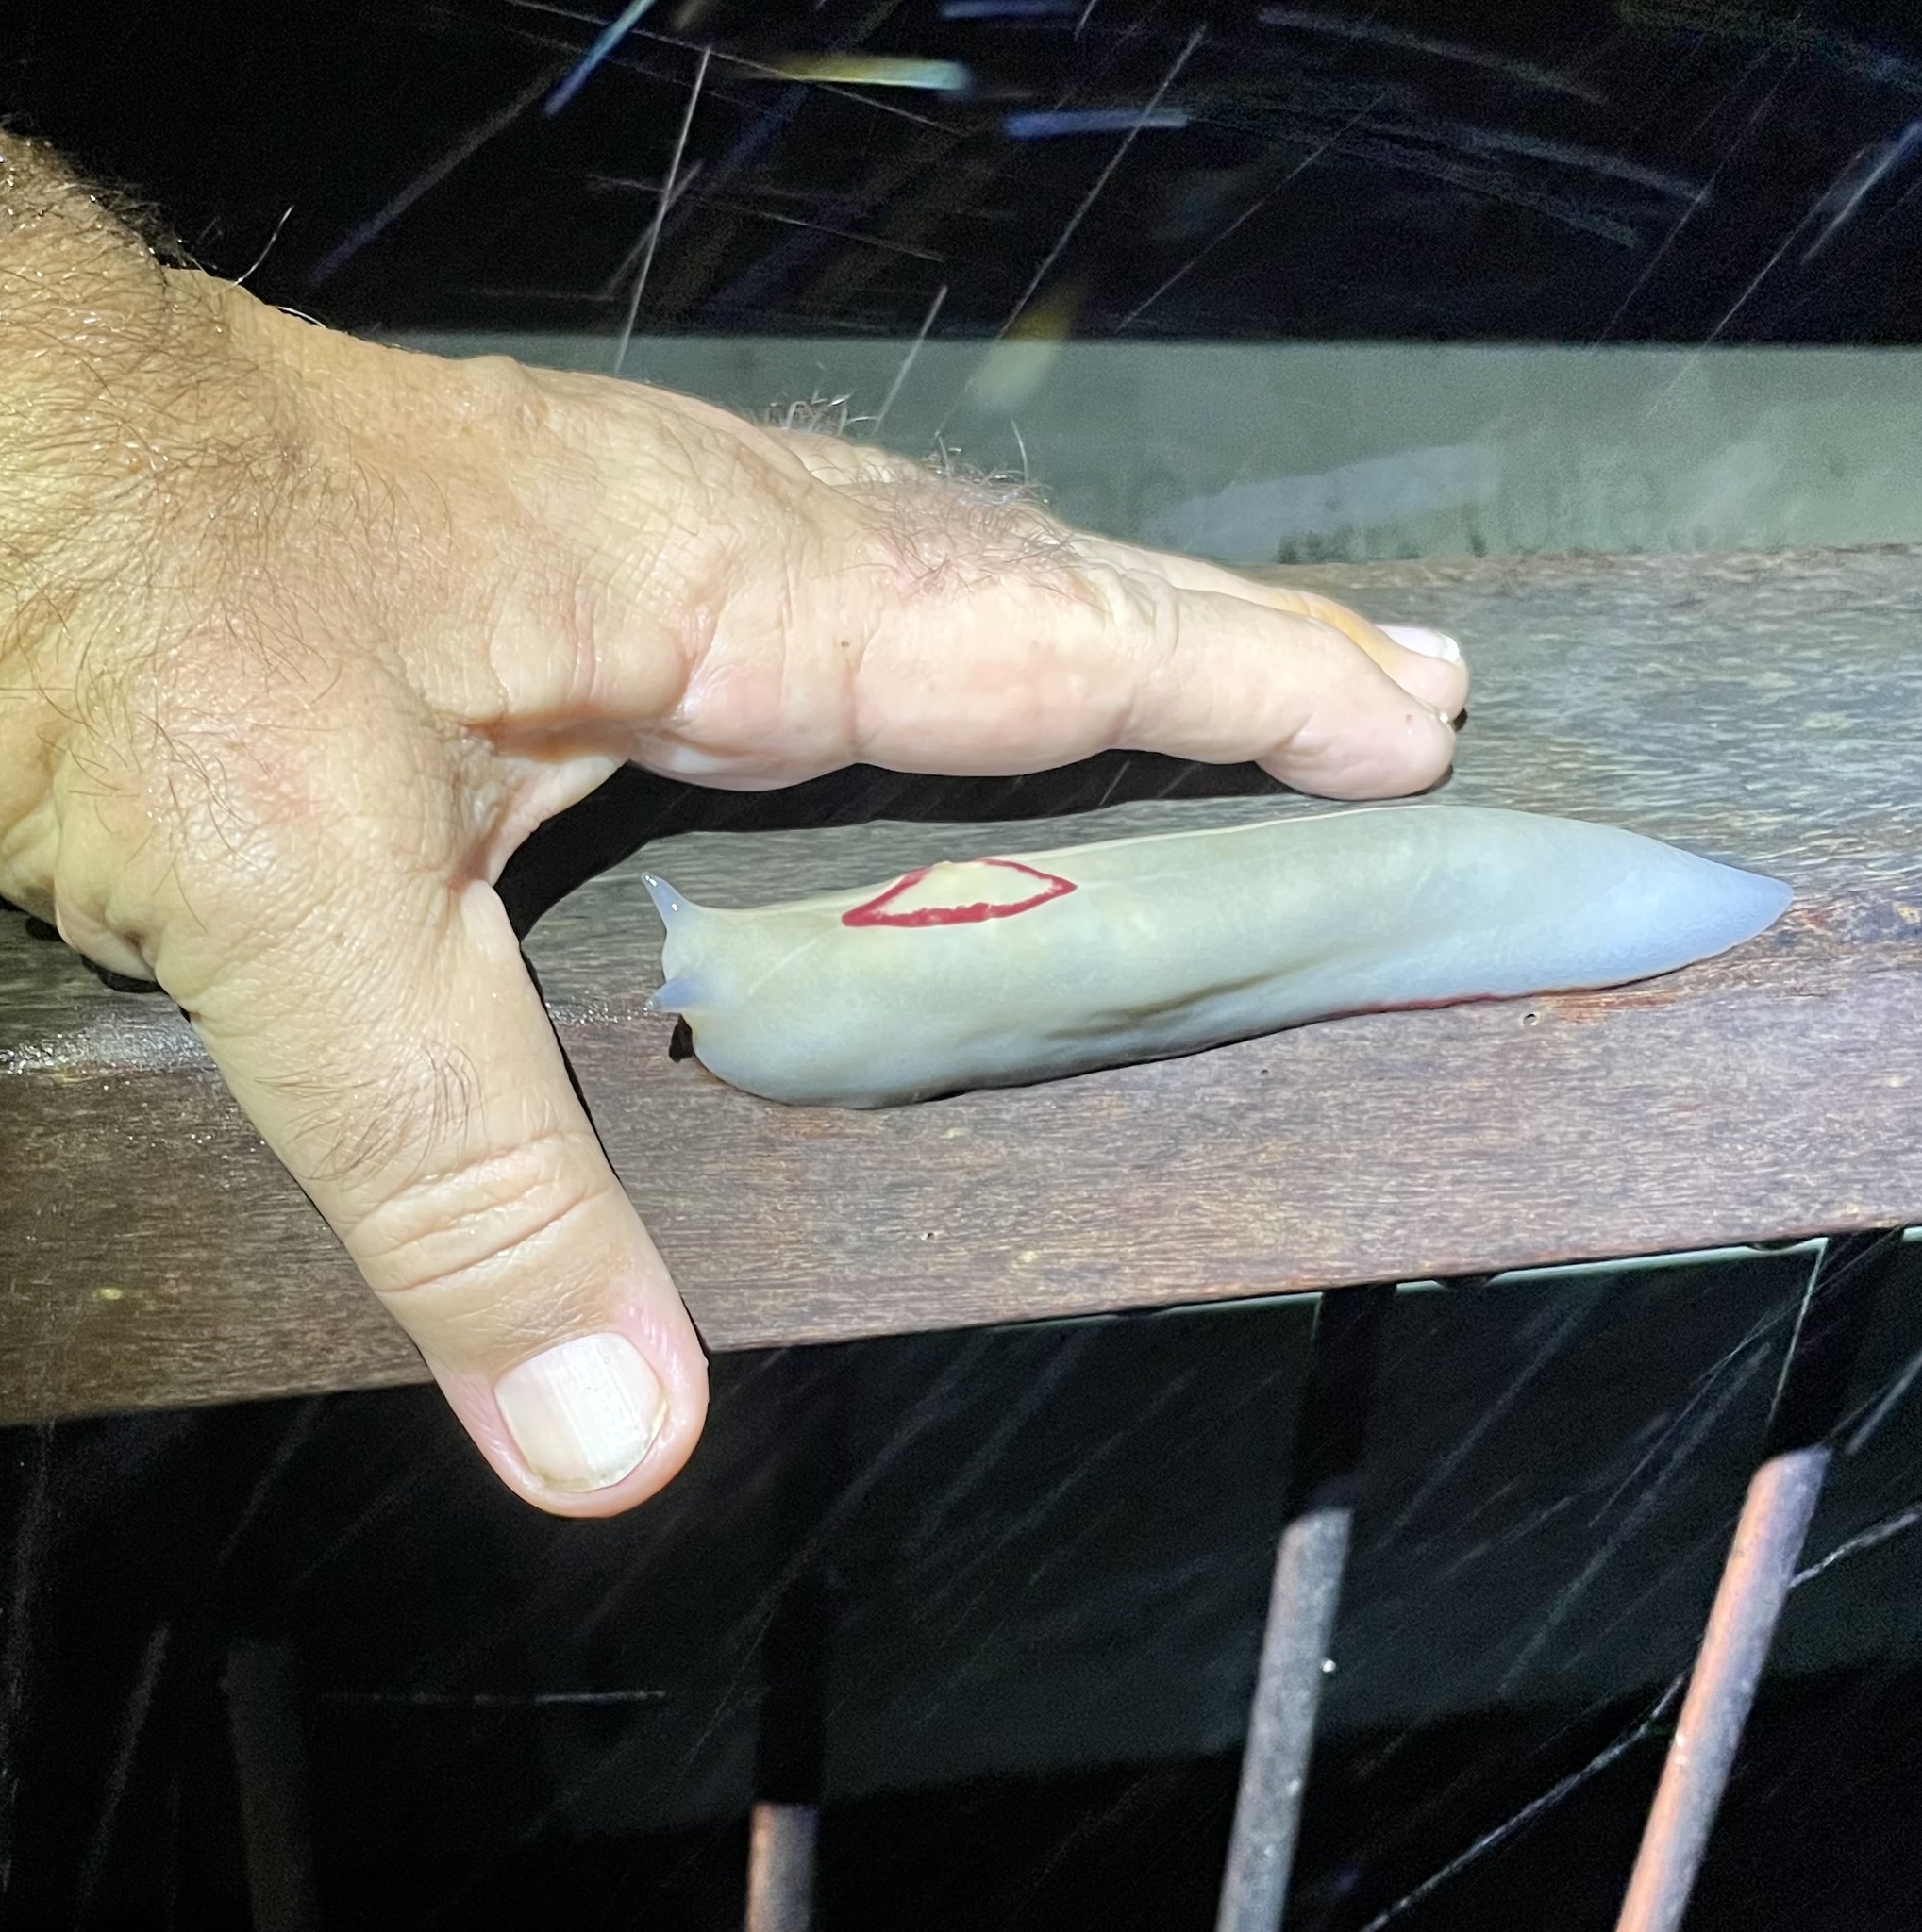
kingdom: Animalia
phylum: Mollusca
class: Gastropoda
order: Stylommatophora
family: Athoracophoridae
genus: Triboniophorus
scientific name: Triboniophorus graeffei
